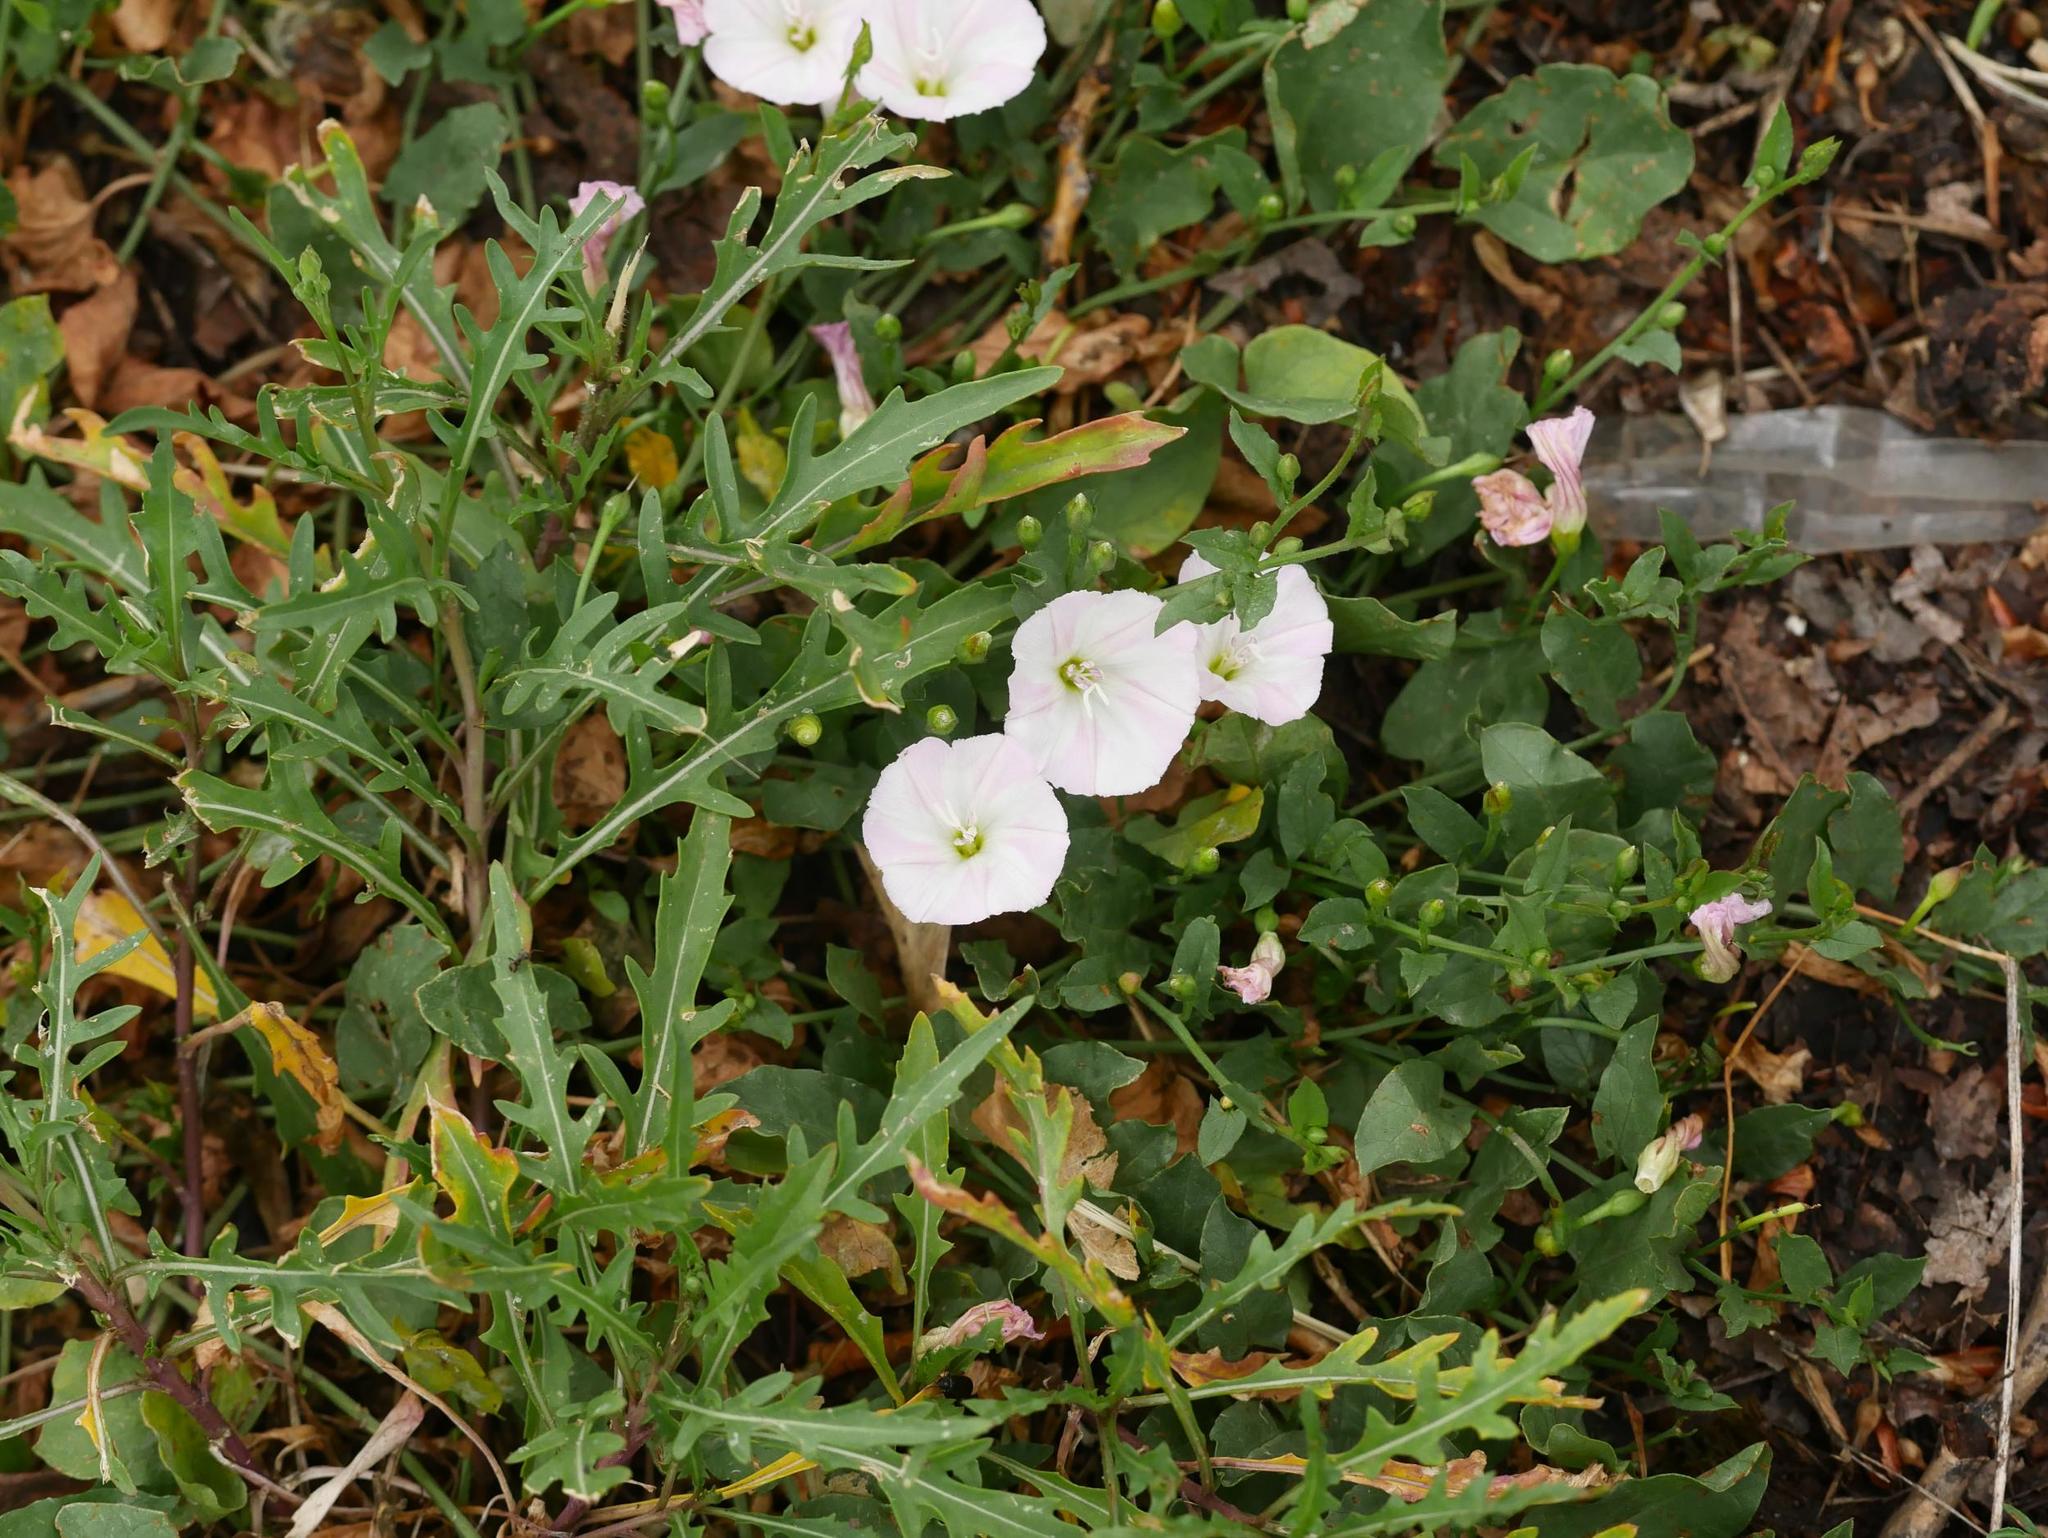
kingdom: Plantae
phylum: Tracheophyta
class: Magnoliopsida
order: Solanales
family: Convolvulaceae
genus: Convolvulus
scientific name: Convolvulus arvensis
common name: Field bindweed
